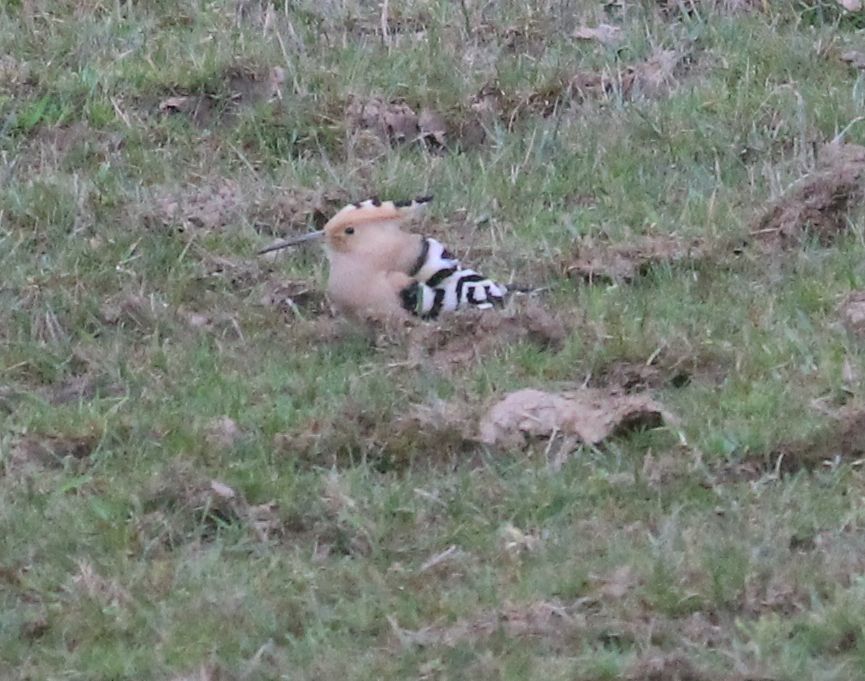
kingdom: Animalia
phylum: Chordata
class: Aves
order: Bucerotiformes
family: Upupidae
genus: Upupa
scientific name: Upupa epops
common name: Eurasian hoopoe
